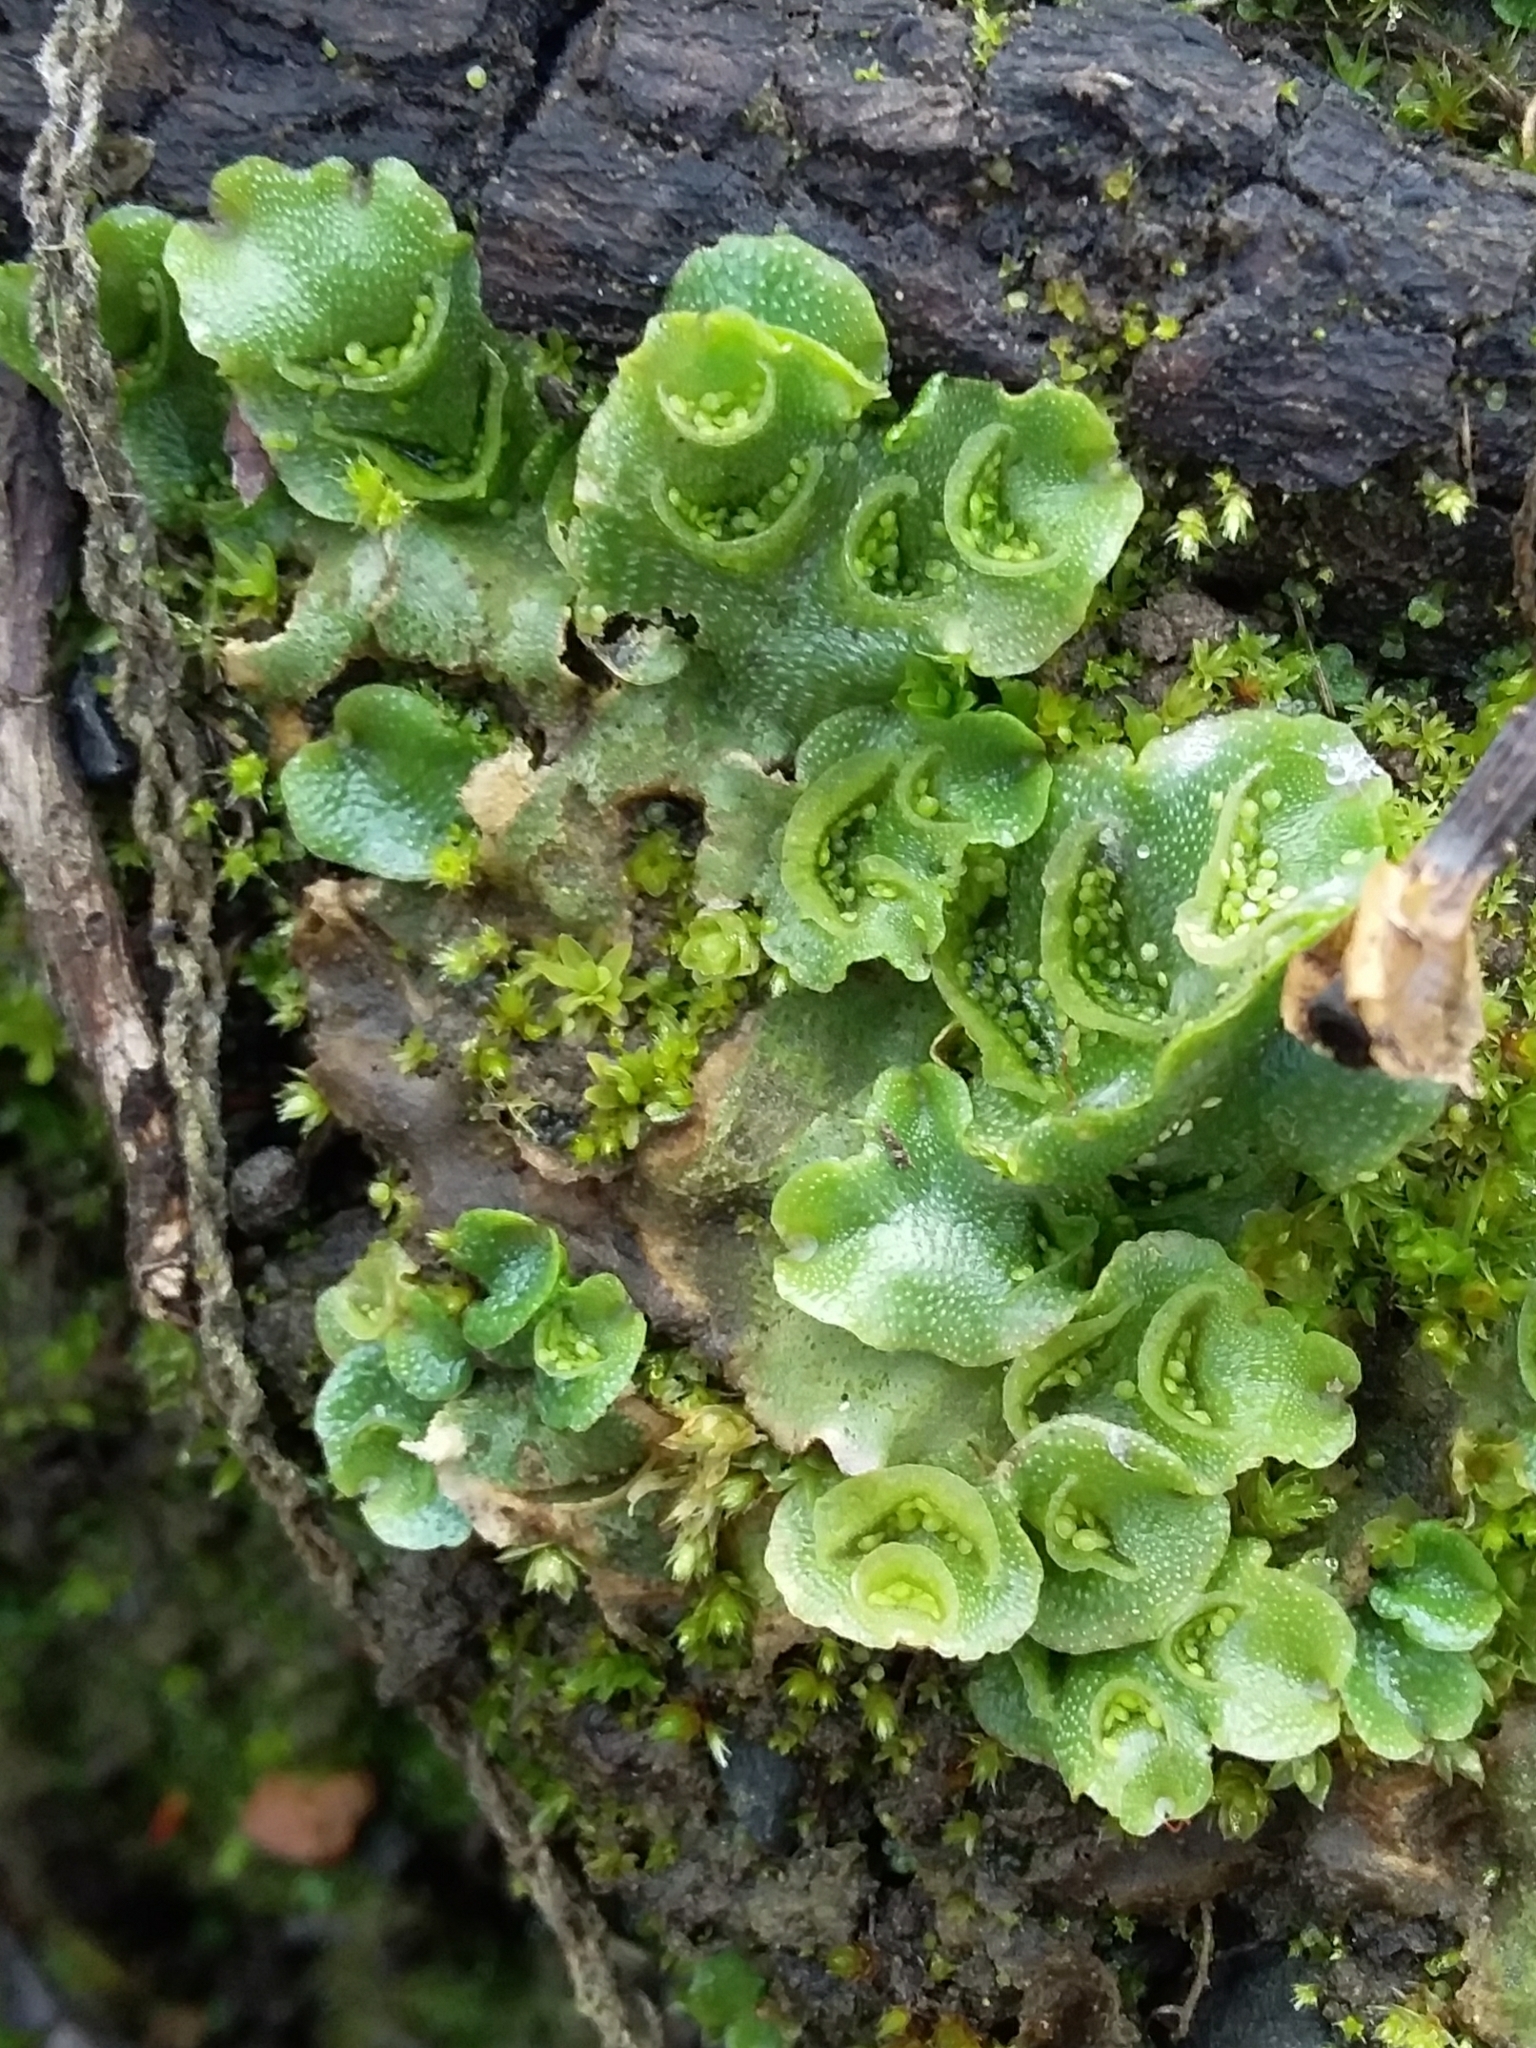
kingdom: Plantae
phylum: Marchantiophyta
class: Marchantiopsida
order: Lunulariales
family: Lunulariaceae
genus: Lunularia
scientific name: Lunularia cruciata
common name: Crescent-cup liverwort
